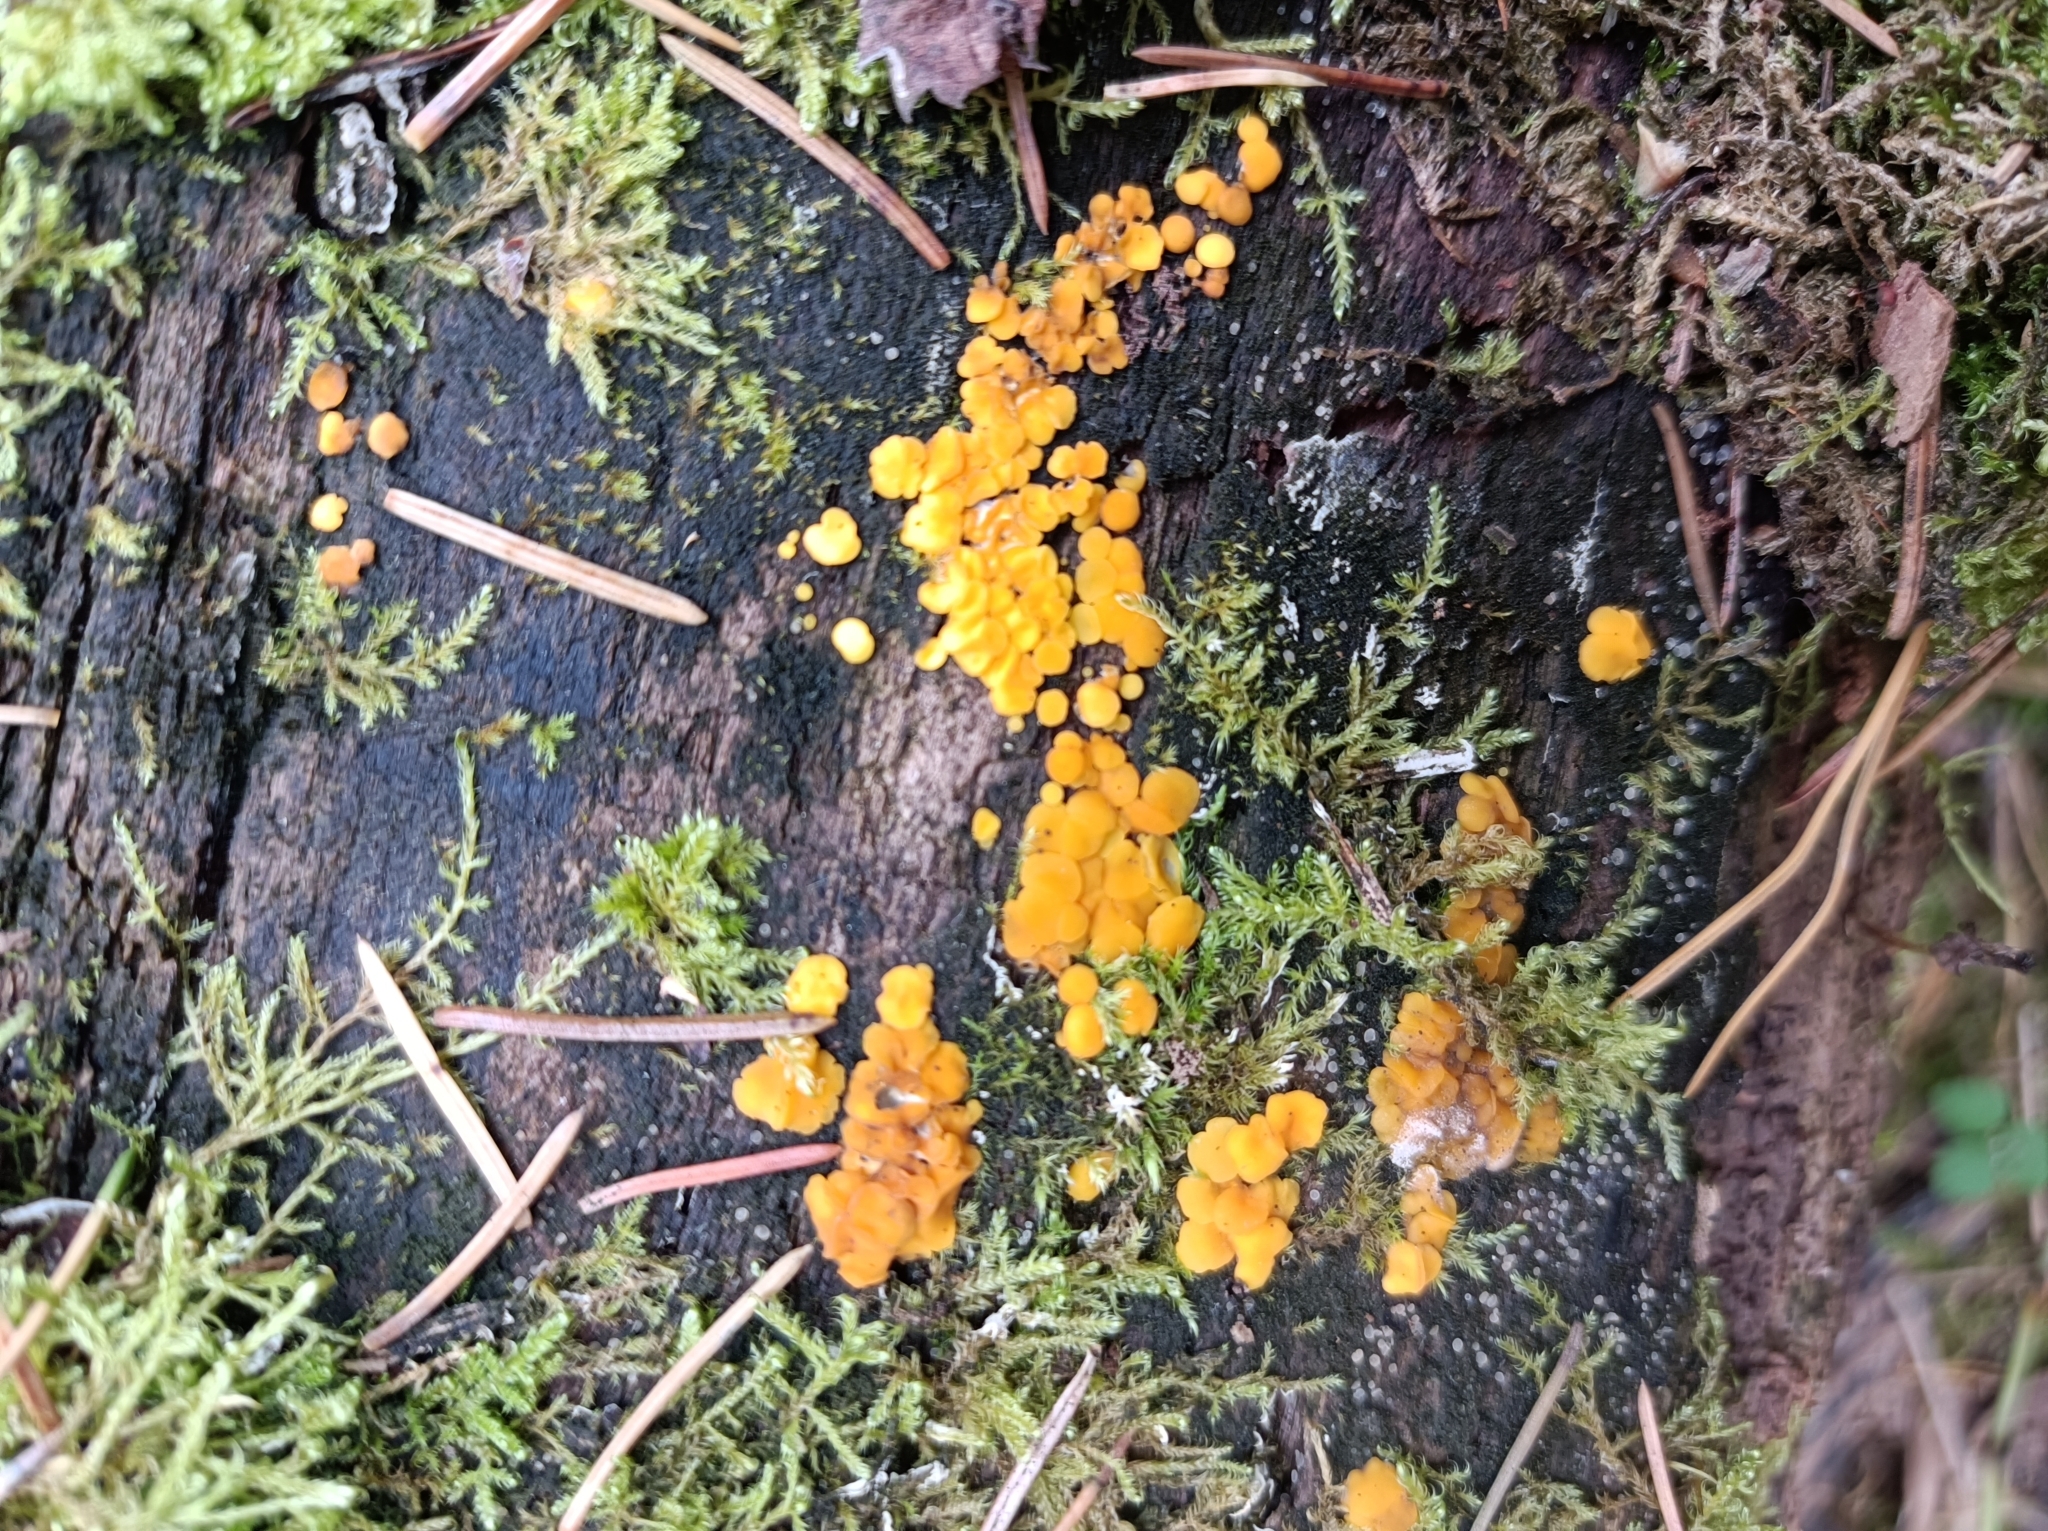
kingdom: Fungi
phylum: Ascomycota
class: Leotiomycetes
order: Helotiales
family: Pezizellaceae
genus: Calycina
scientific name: Calycina citrina
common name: Yellow fairy cups
